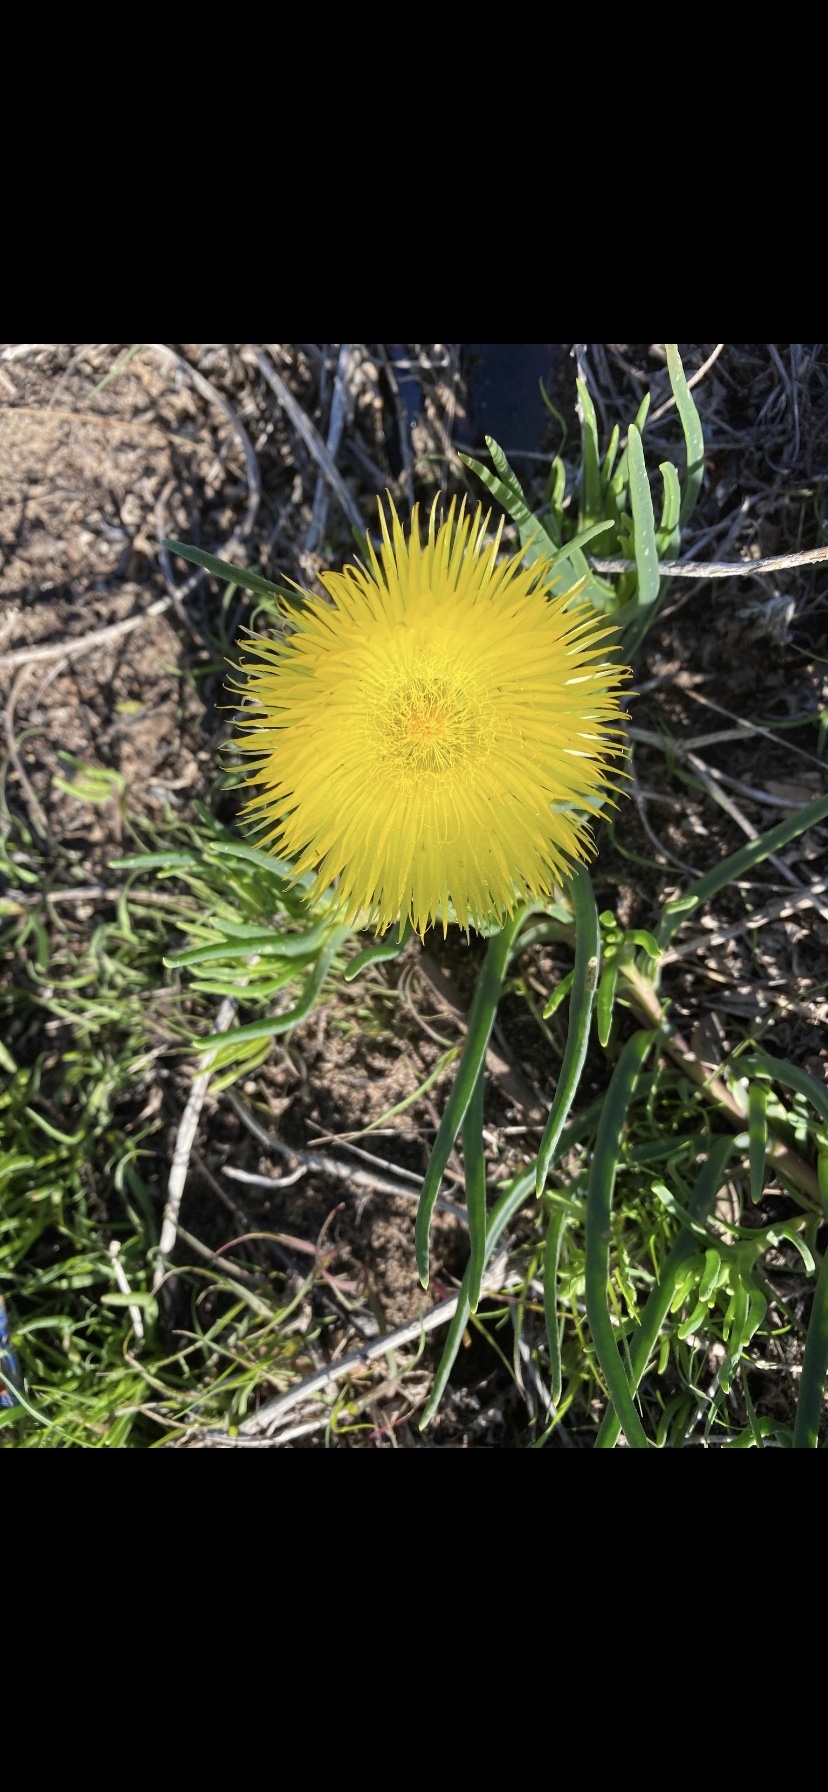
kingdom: Plantae
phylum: Tracheophyta
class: Magnoliopsida
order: Caryophyllales
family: Aizoaceae
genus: Conicosia
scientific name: Conicosia pugioniformis
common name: Narrow-leaved iceplant
